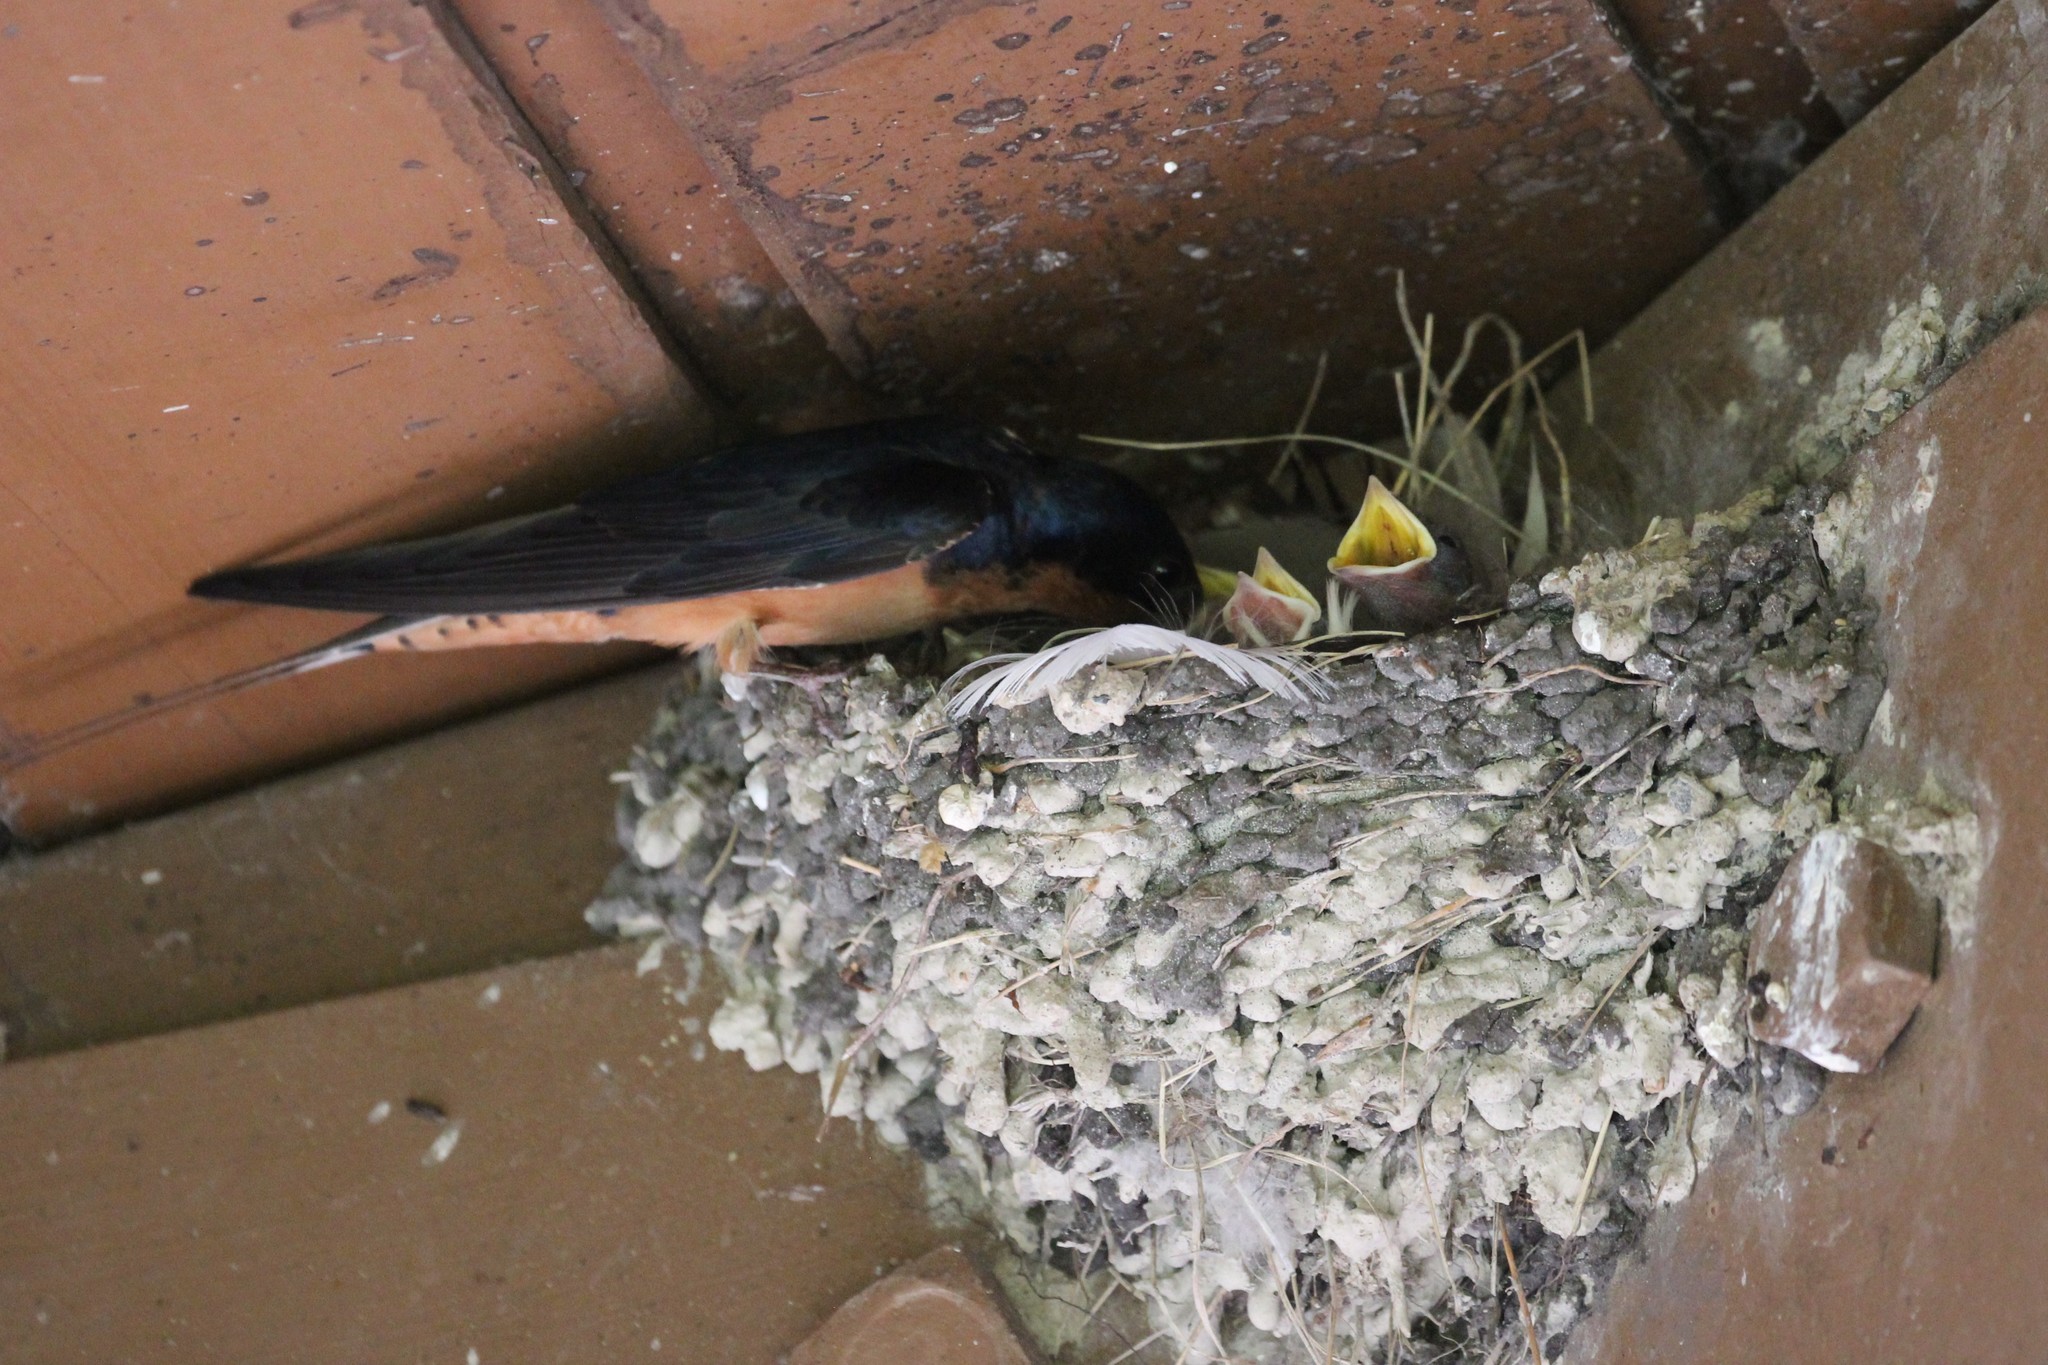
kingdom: Animalia
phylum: Chordata
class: Aves
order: Passeriformes
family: Hirundinidae
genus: Hirundo
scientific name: Hirundo rustica
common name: Barn swallow
